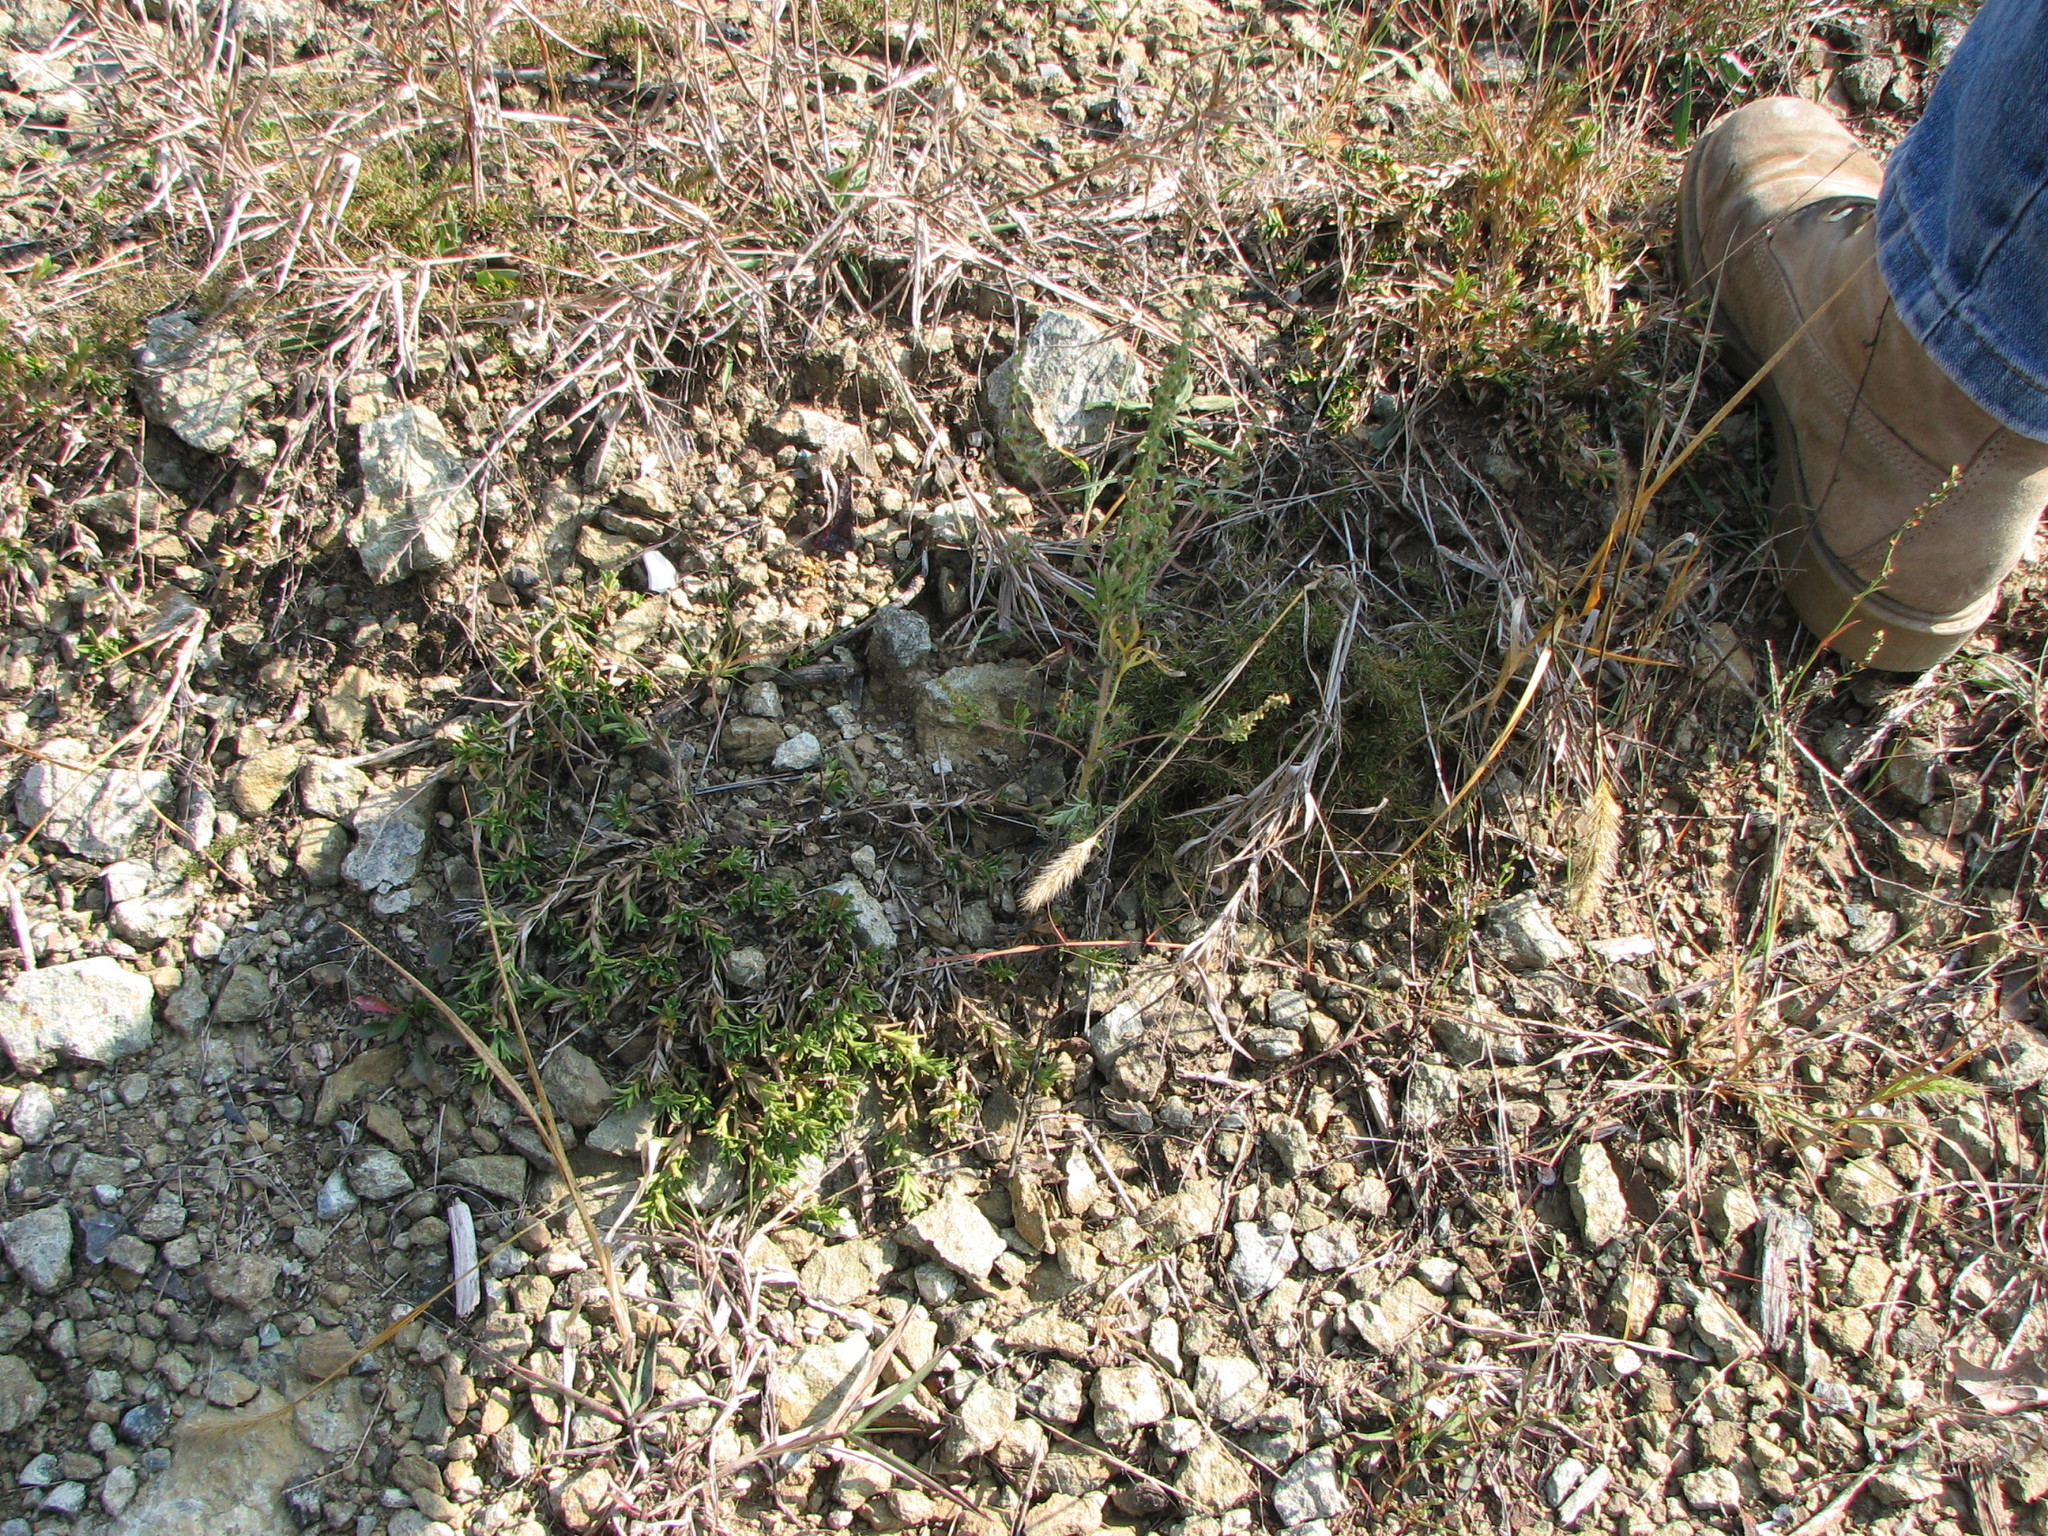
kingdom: Plantae
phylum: Tracheophyta
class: Magnoliopsida
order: Caryophyllales
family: Caryophyllaceae
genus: Cerastium
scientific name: Cerastium velutinum
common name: Barren chickweed
